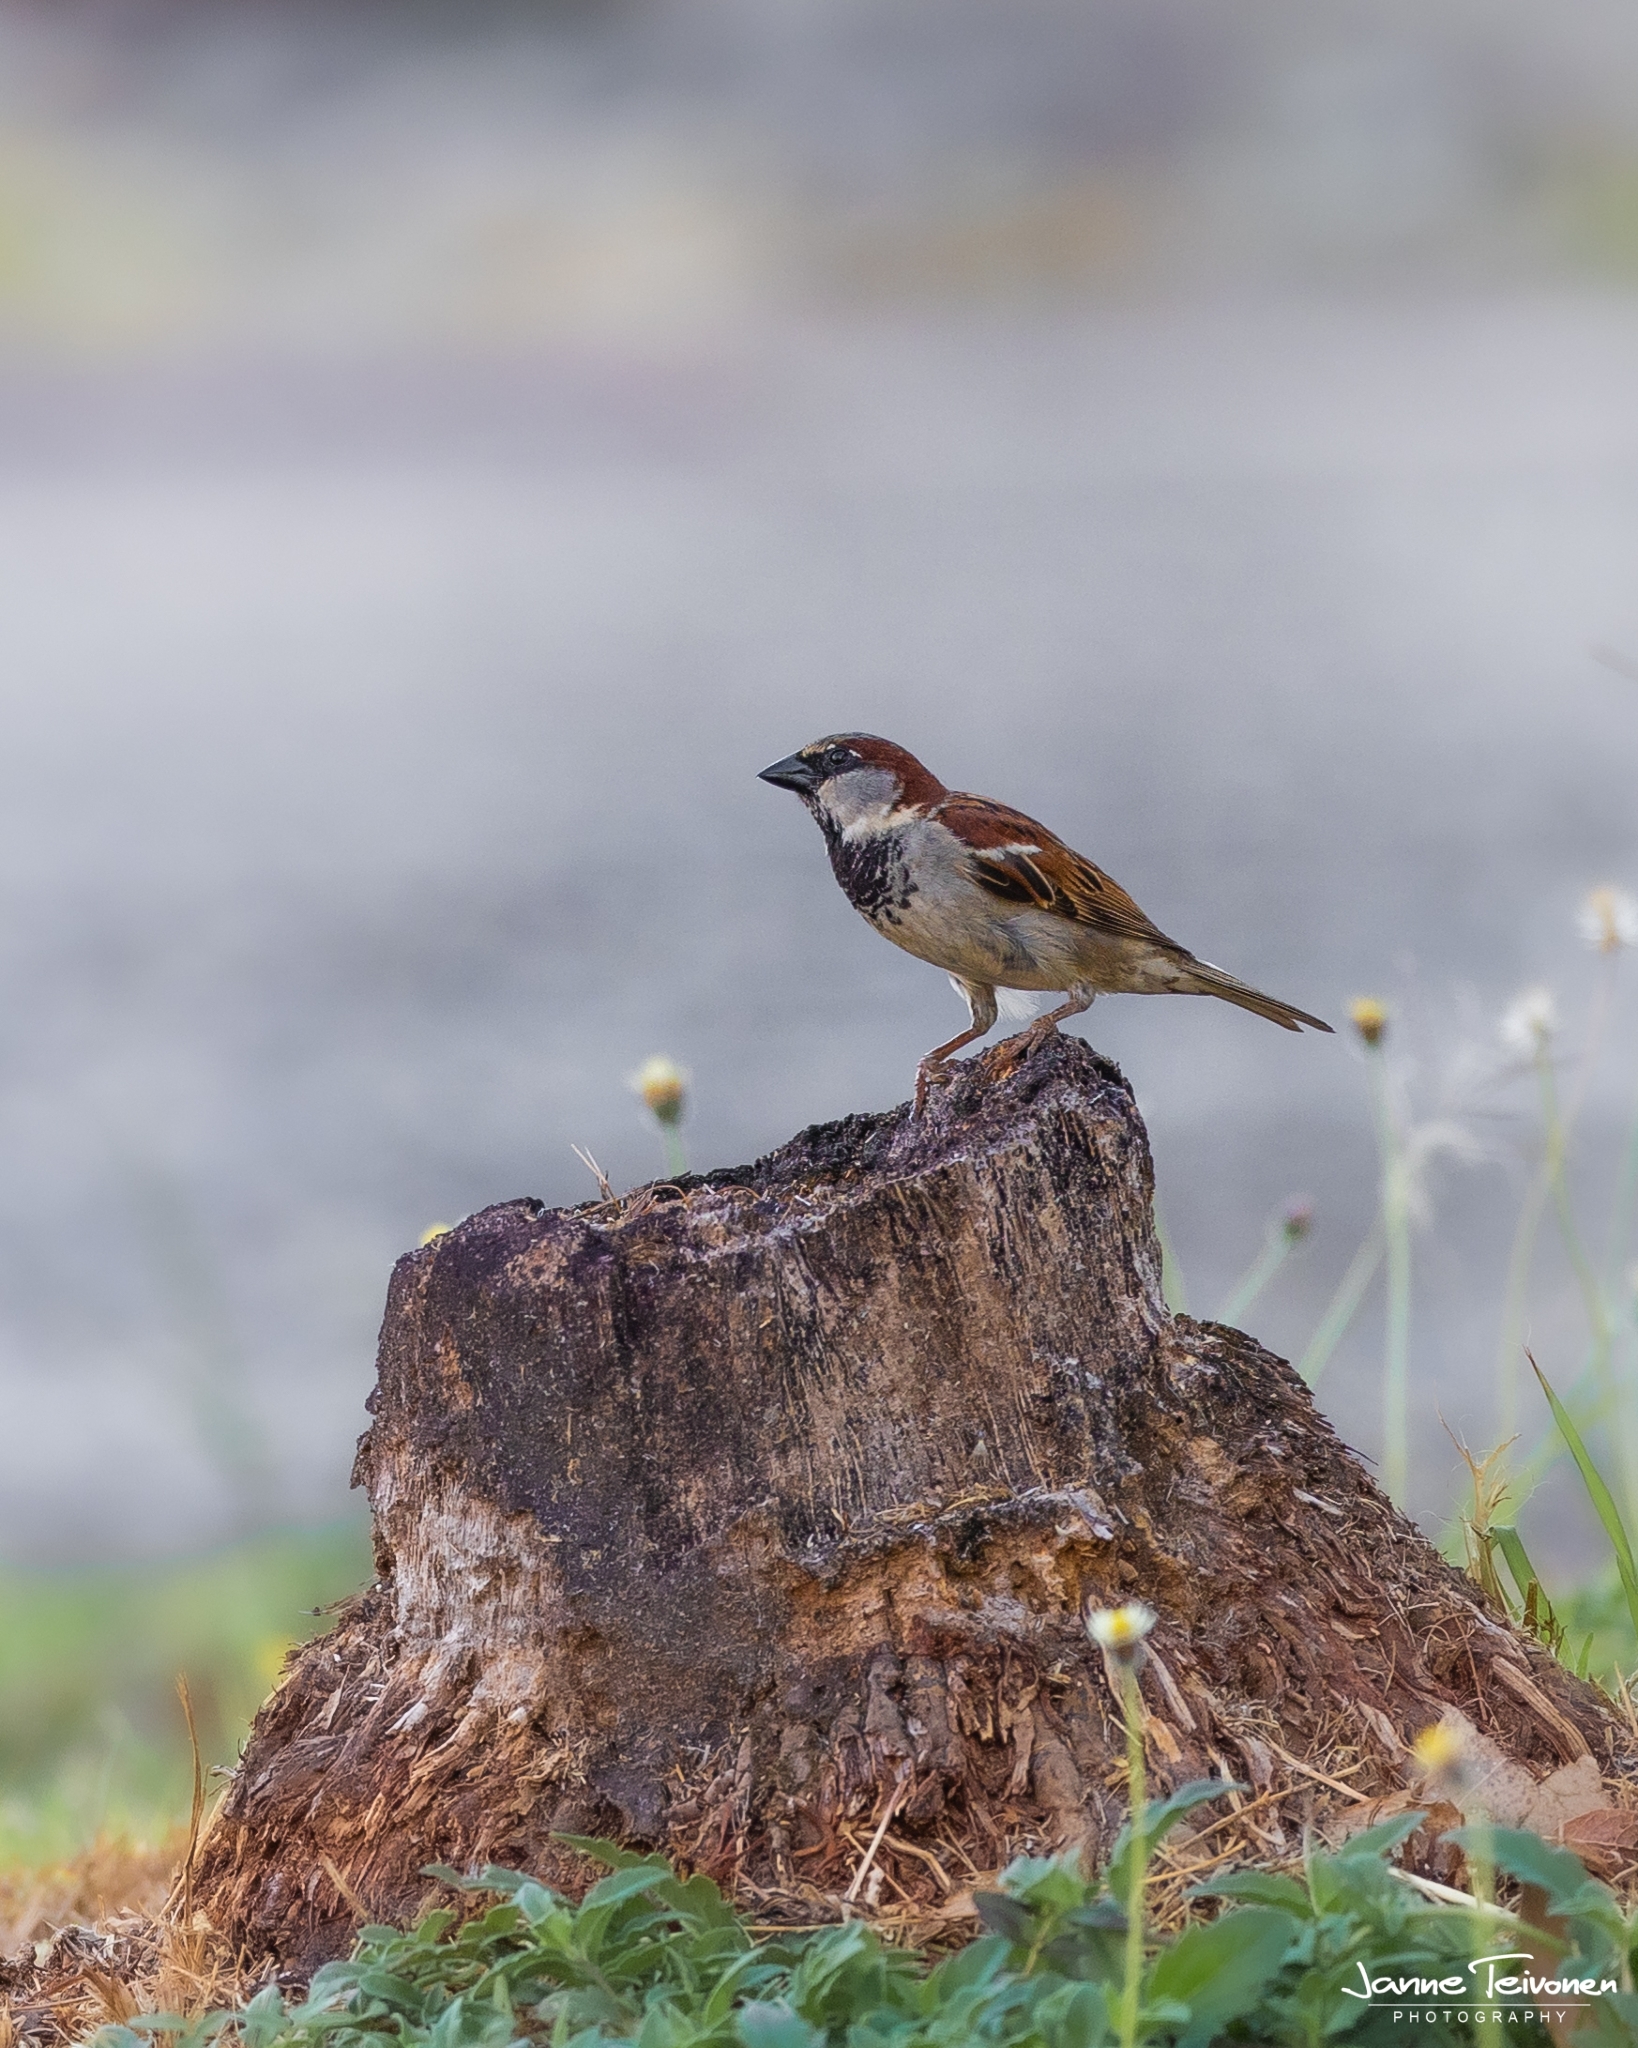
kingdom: Animalia
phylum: Chordata
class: Aves
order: Passeriformes
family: Passeridae
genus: Passer
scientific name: Passer domesticus
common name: House sparrow
